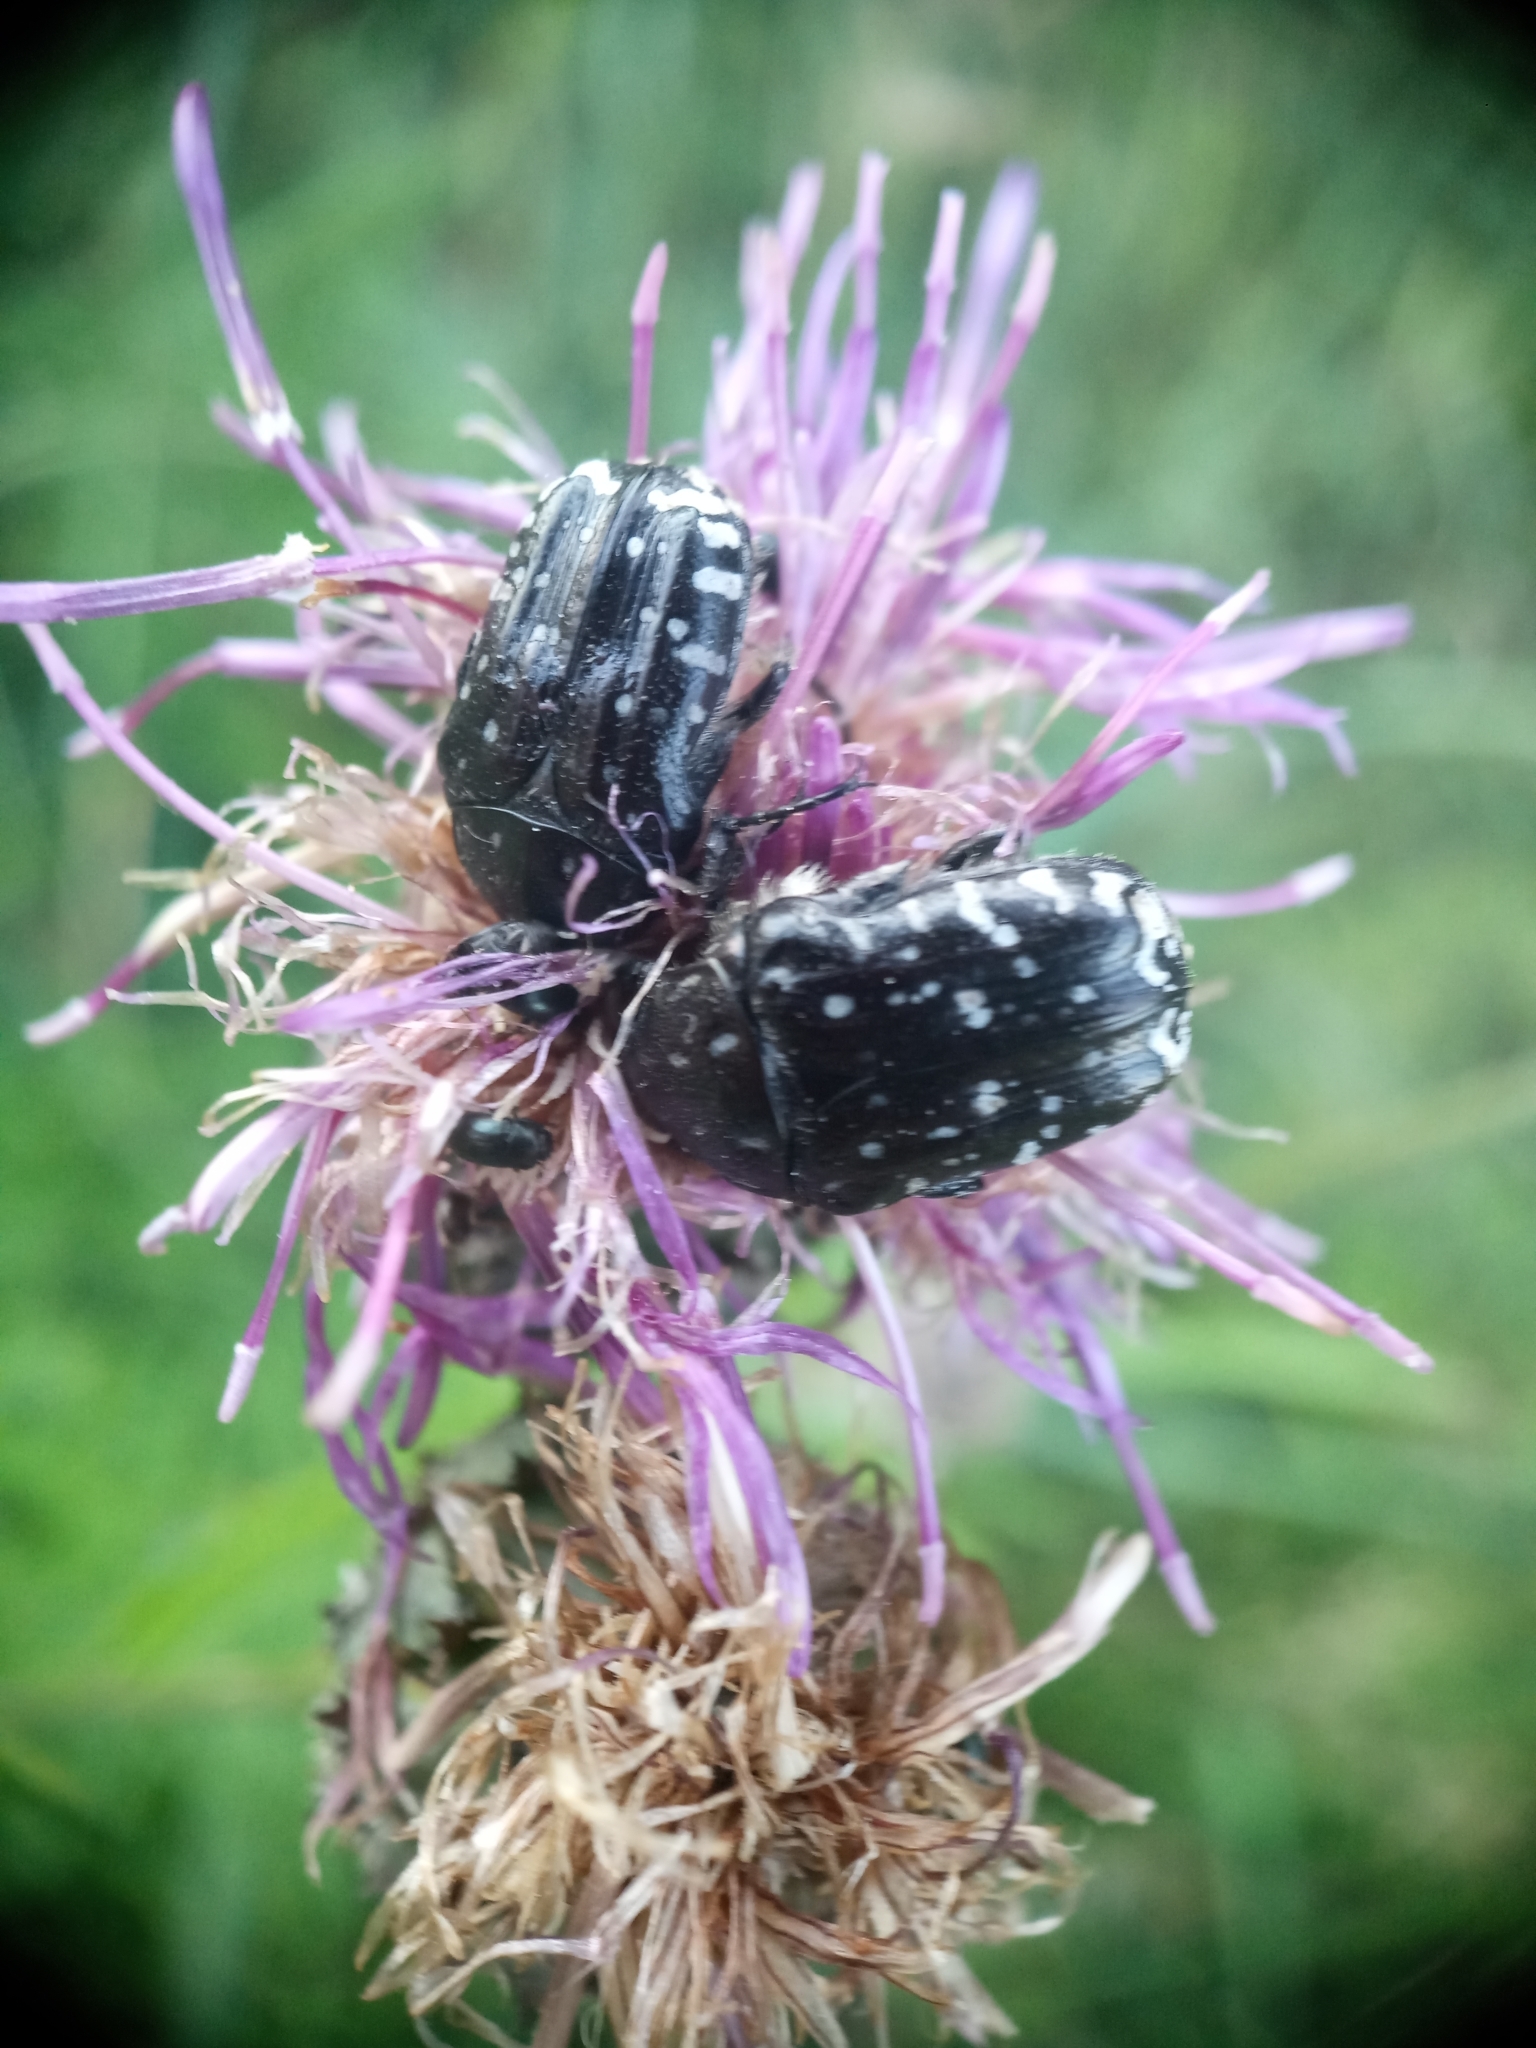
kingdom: Animalia
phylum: Arthropoda
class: Insecta
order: Coleoptera
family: Scarabaeidae
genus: Oxythyrea
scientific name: Oxythyrea funesta
